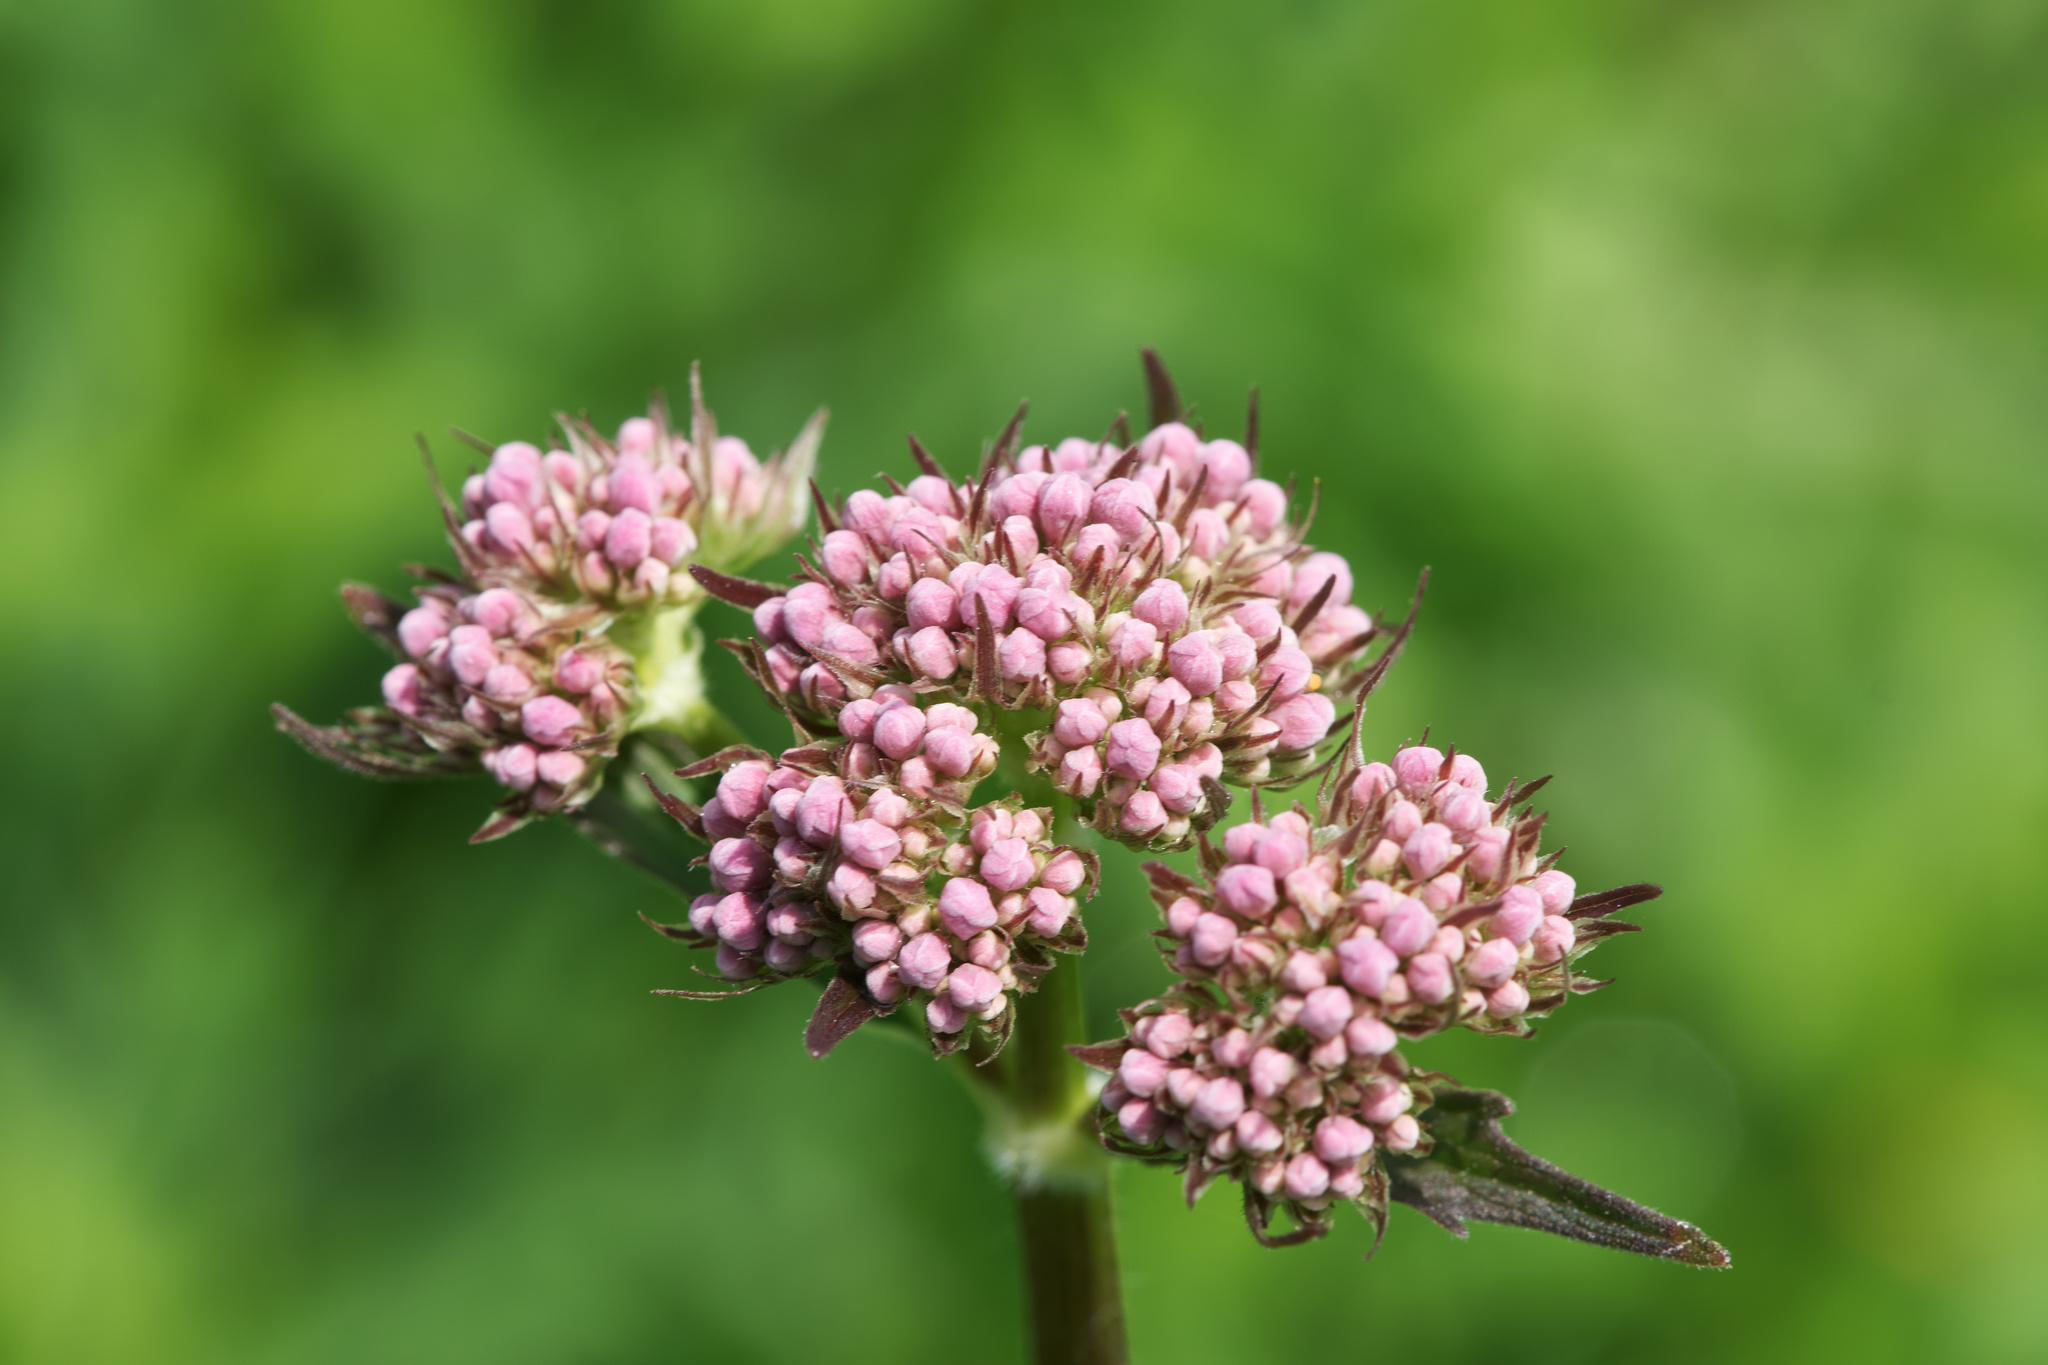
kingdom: Plantae
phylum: Tracheophyta
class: Magnoliopsida
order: Dipsacales
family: Caprifoliaceae
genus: Valeriana
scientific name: Valeriana officinalis
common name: Common valerian
